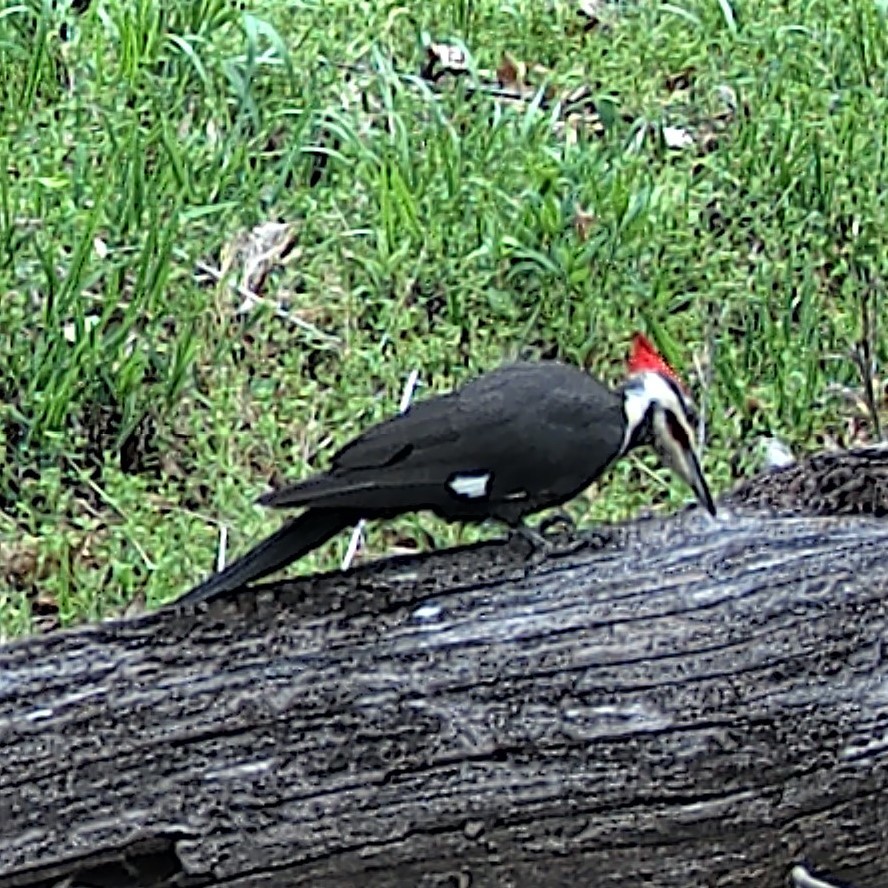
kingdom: Animalia
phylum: Chordata
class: Aves
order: Piciformes
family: Picidae
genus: Dryocopus
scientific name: Dryocopus pileatus
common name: Pileated woodpecker
